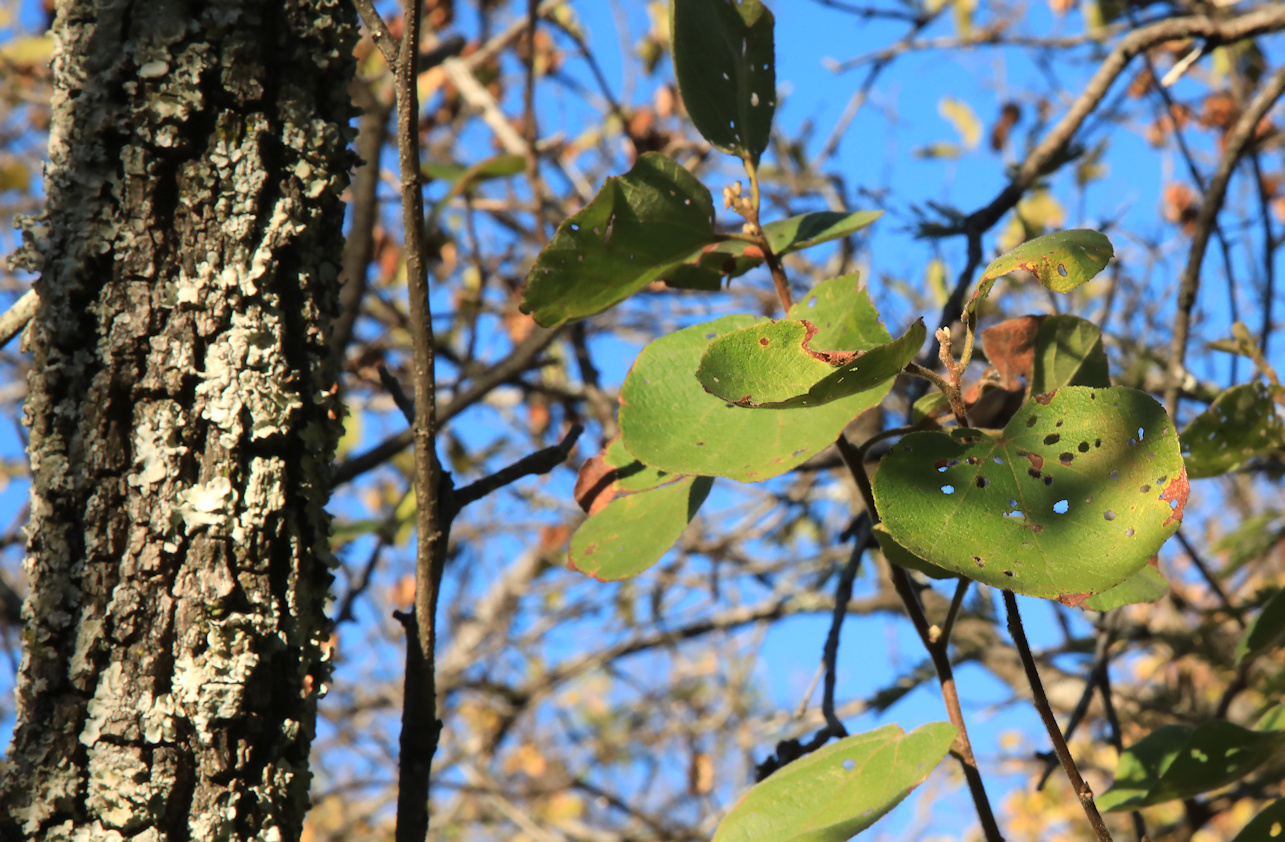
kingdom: Plantae
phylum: Tracheophyta
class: Magnoliopsida
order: Malvales
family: Malvaceae
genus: Dombeya
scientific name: Dombeya rotundifolia
